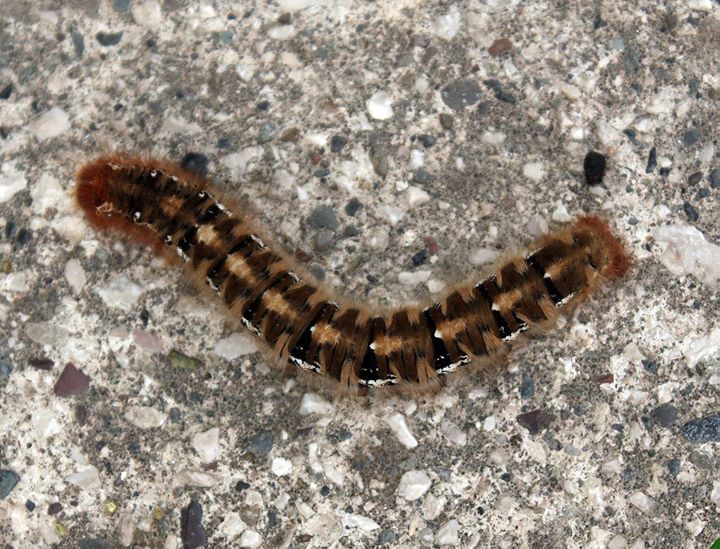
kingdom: Animalia
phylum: Arthropoda
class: Insecta
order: Lepidoptera
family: Lasiocampidae
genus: Lasiocampa
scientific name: Lasiocampa quercus
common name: Oak eggar
